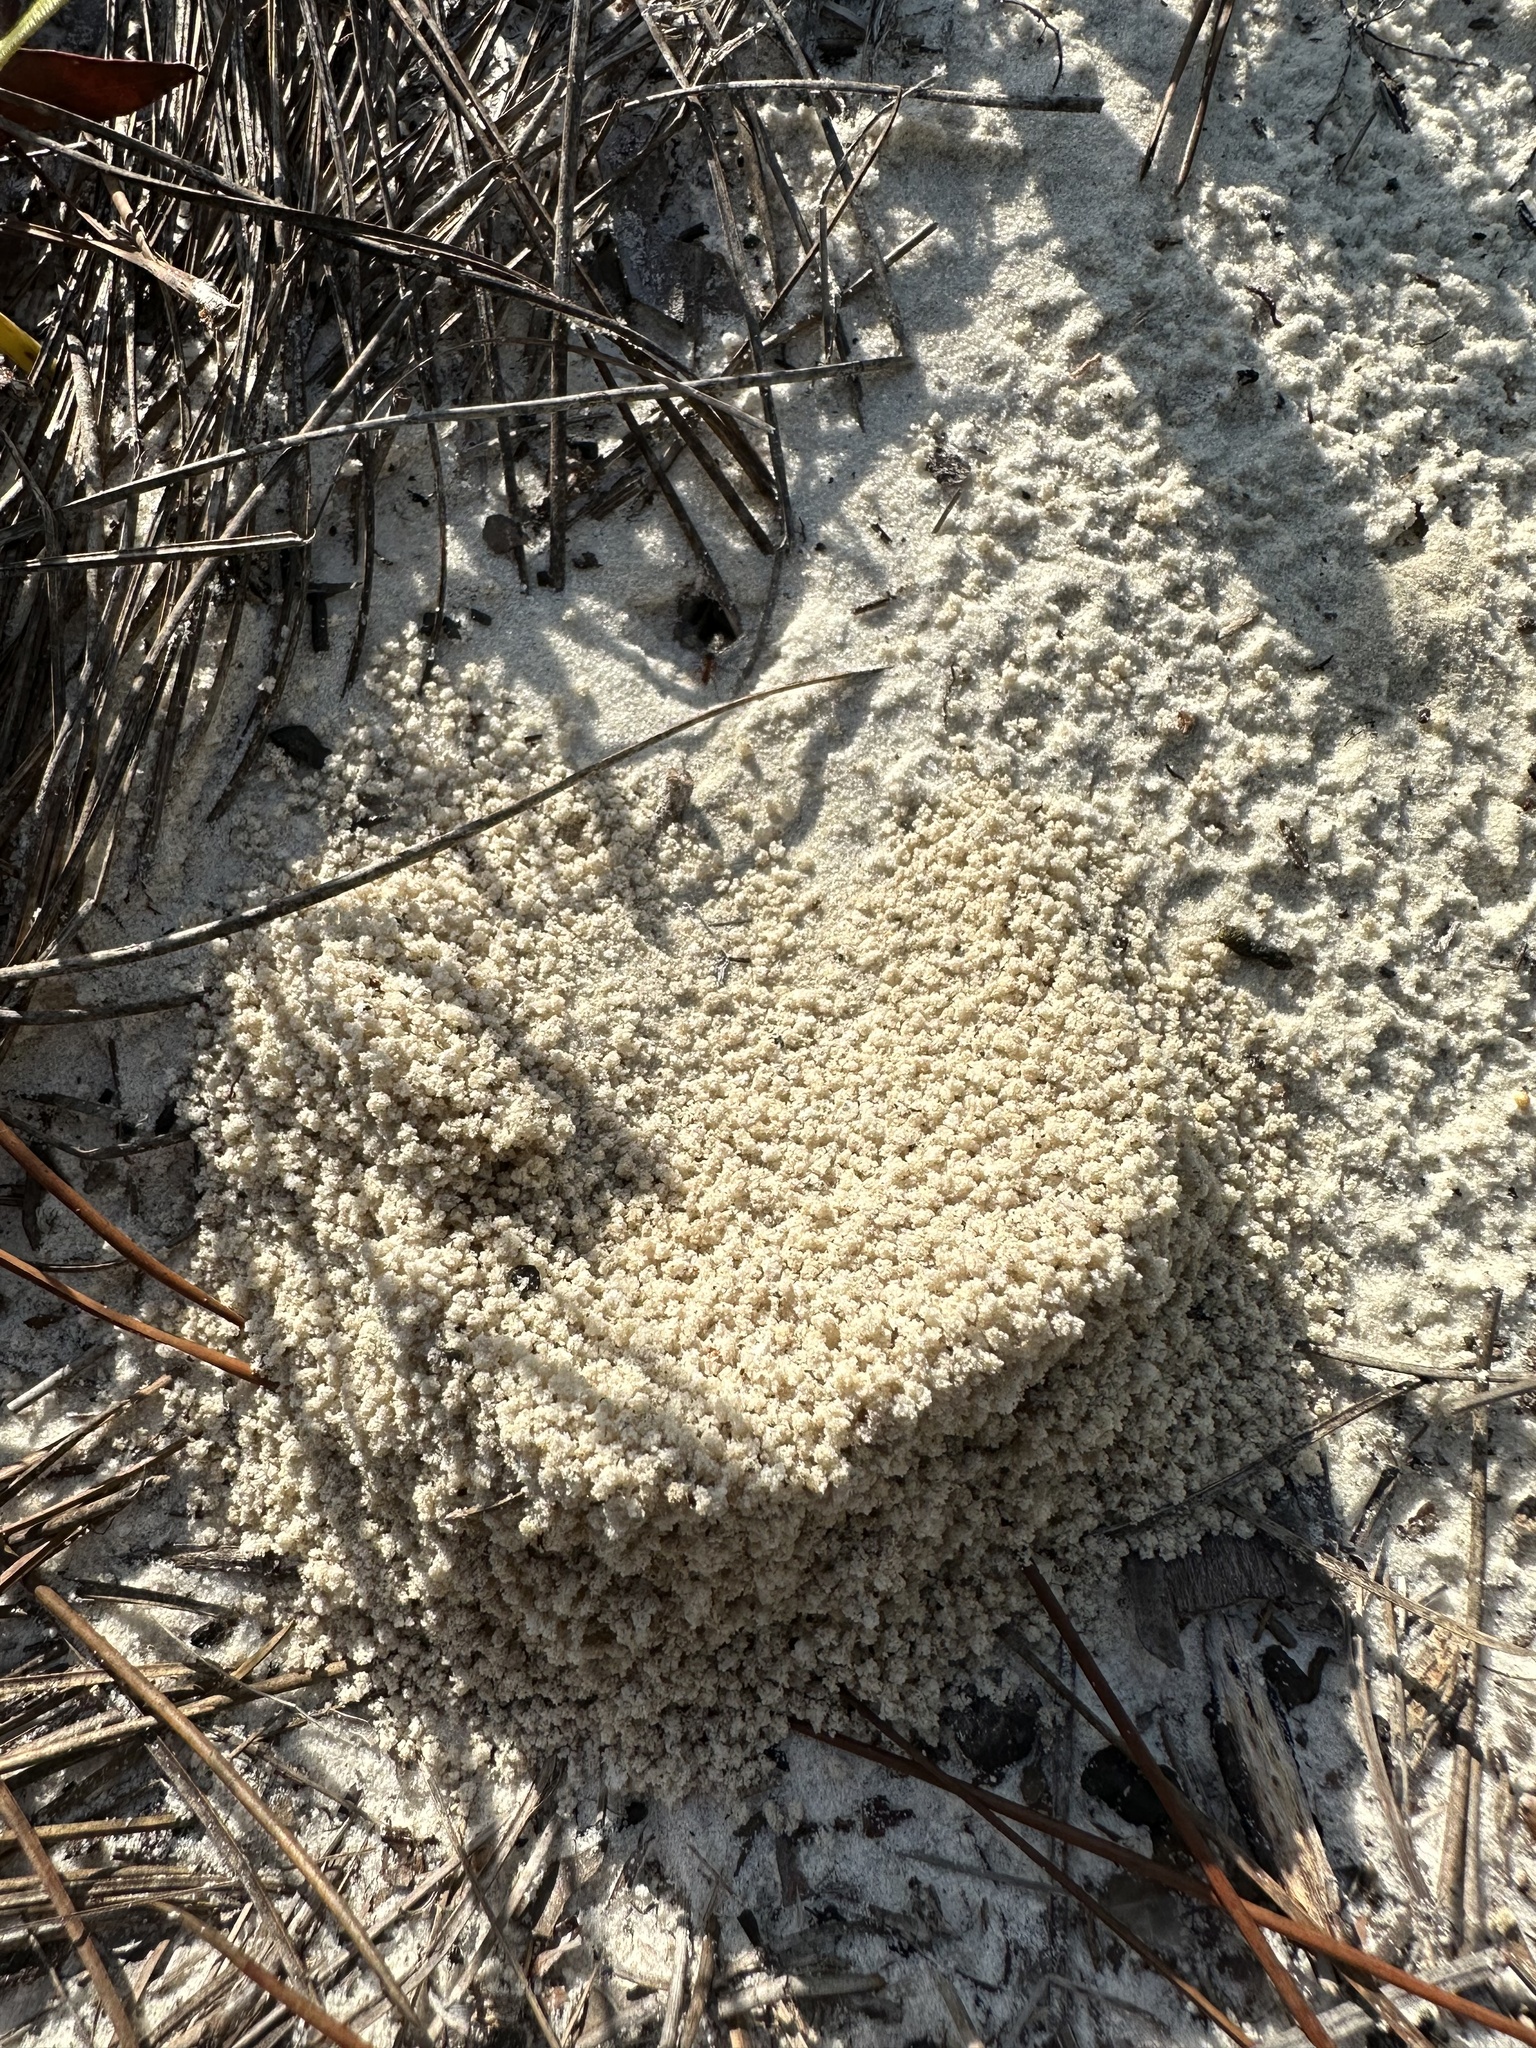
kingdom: Animalia
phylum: Arthropoda
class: Insecta
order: Hymenoptera
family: Formicidae
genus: Trachymyrmex
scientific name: Trachymyrmex septentrionalis
